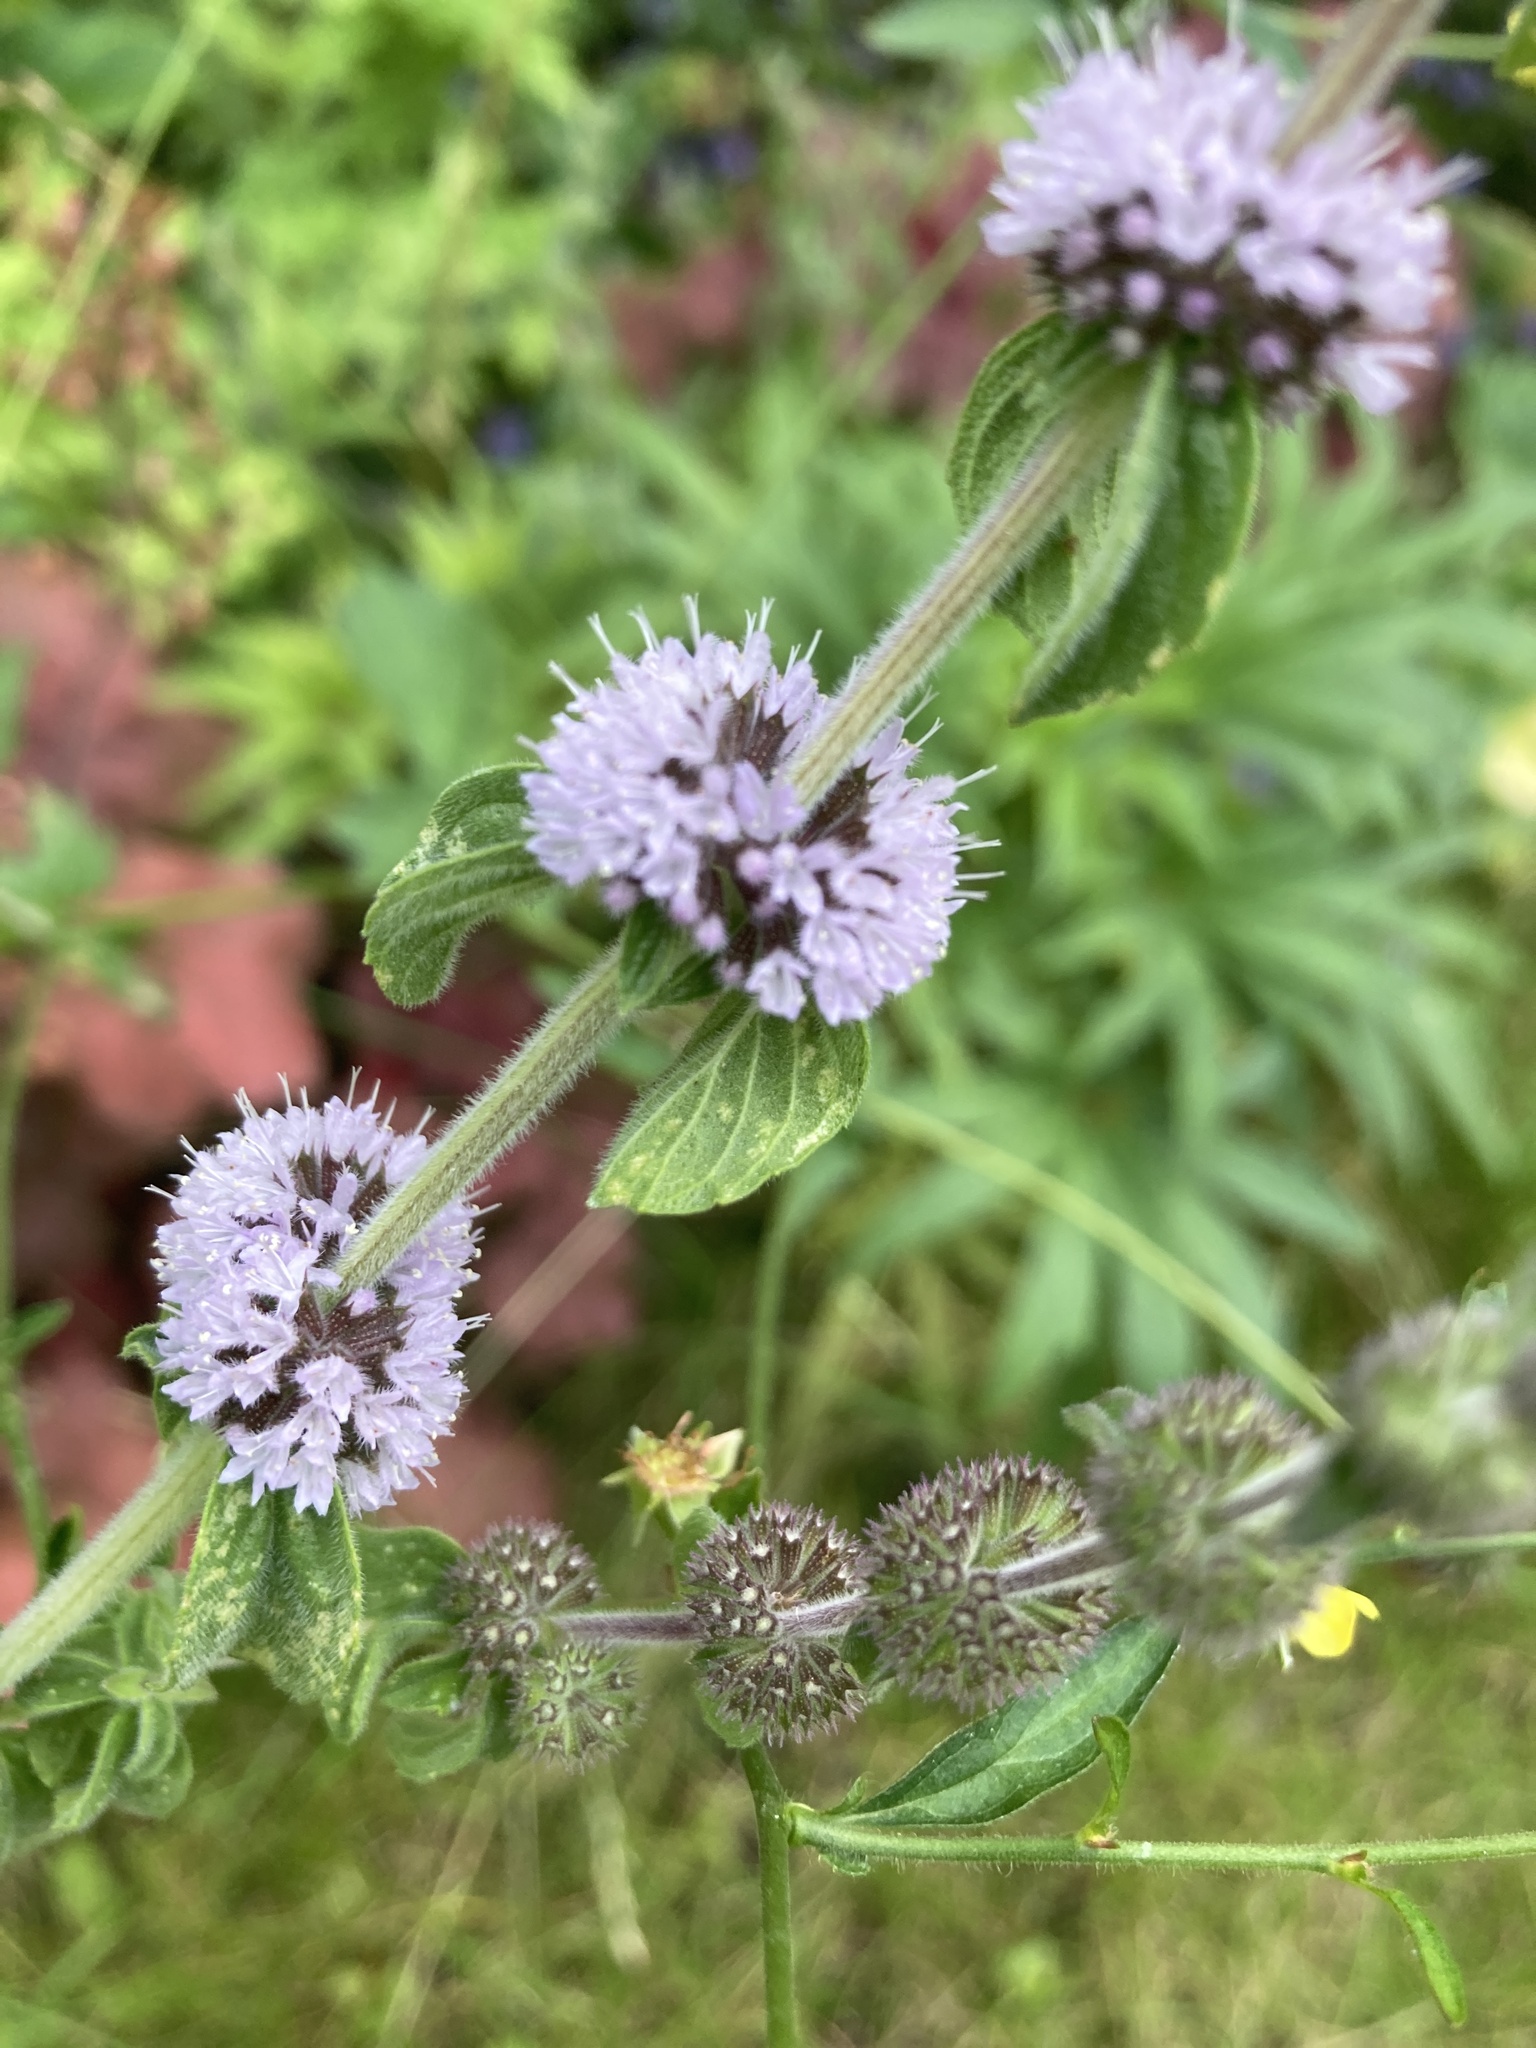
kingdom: Plantae
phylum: Tracheophyta
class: Magnoliopsida
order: Lamiales
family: Lamiaceae
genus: Mentha
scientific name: Mentha pulegium
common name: Pennyroyal
